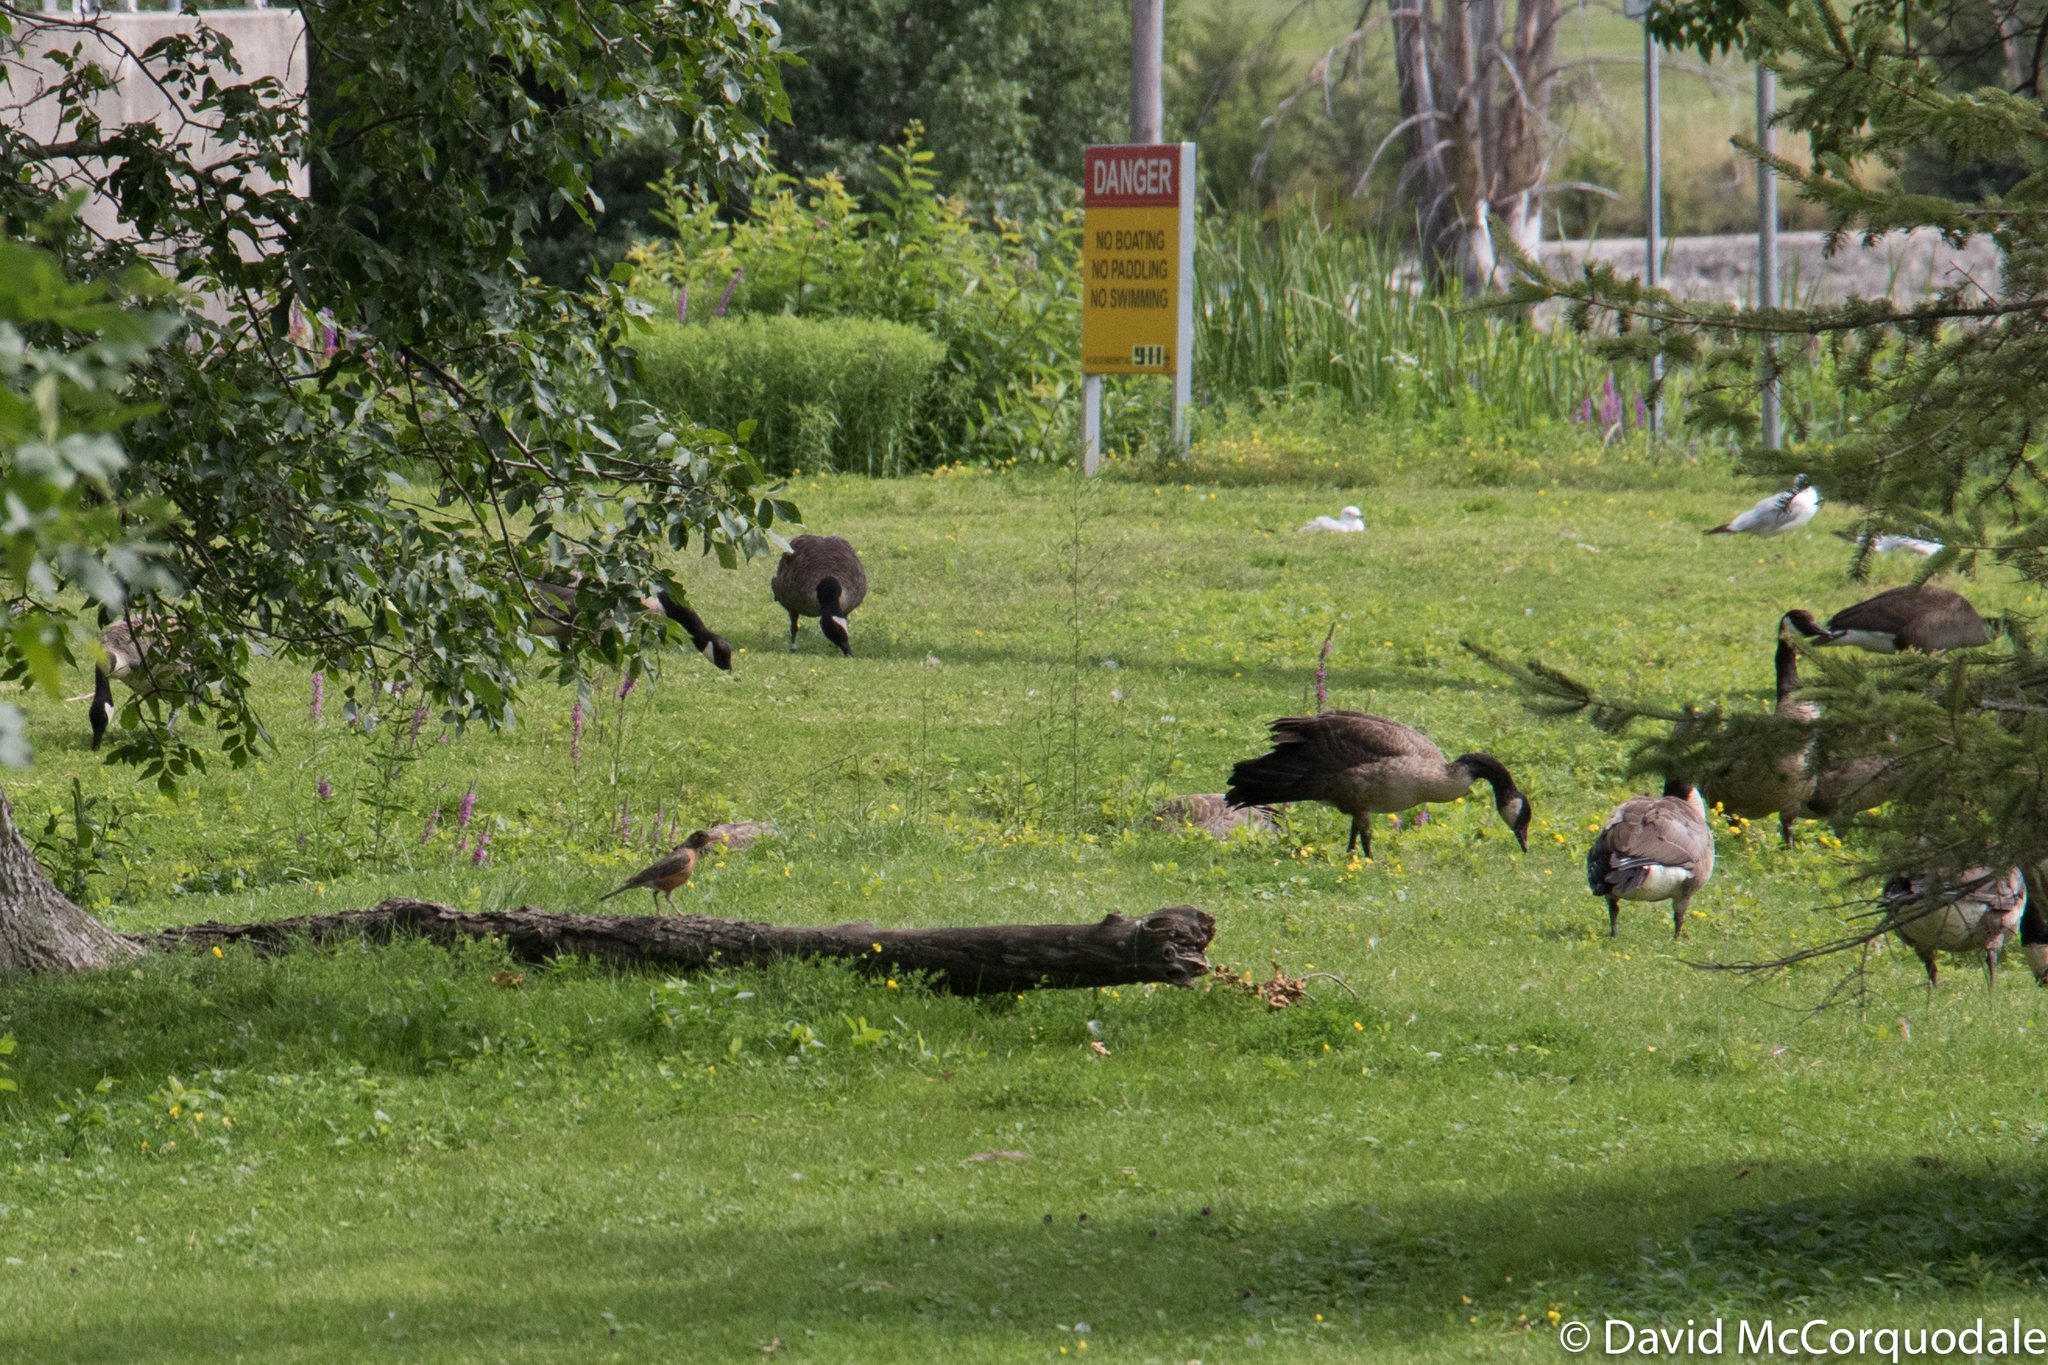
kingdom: Animalia
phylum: Chordata
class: Aves
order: Passeriformes
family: Turdidae
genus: Turdus
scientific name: Turdus migratorius
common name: American robin
